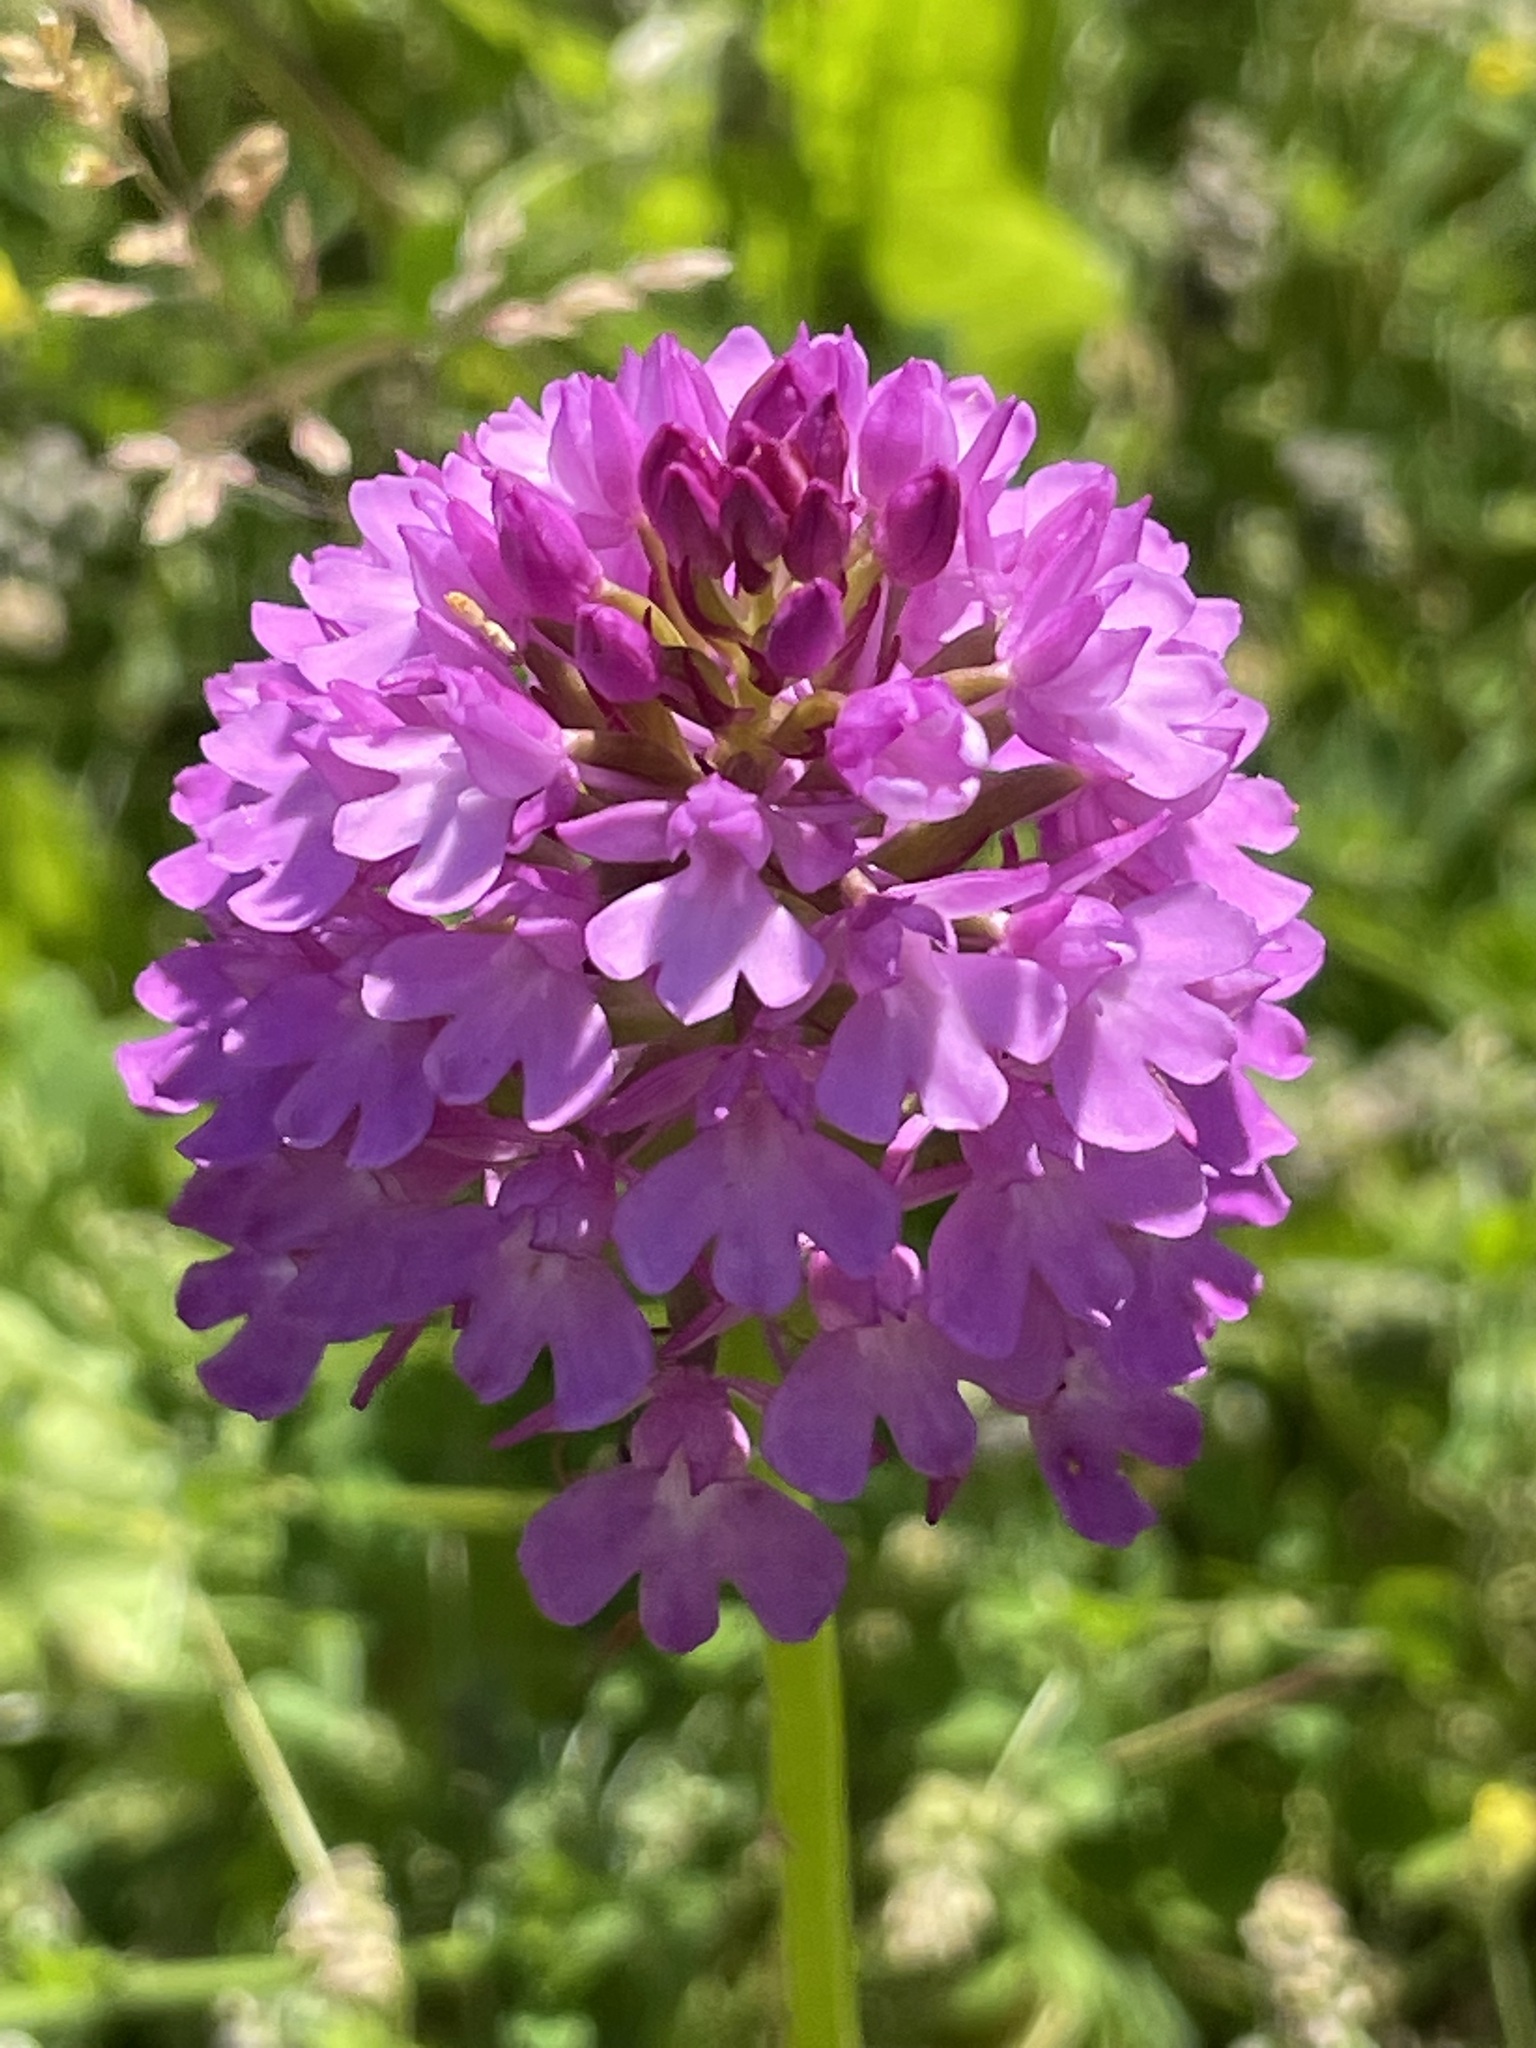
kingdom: Plantae
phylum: Tracheophyta
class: Liliopsida
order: Asparagales
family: Orchidaceae
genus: Anacamptis
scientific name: Anacamptis pyramidalis
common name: Pyramidal orchid
